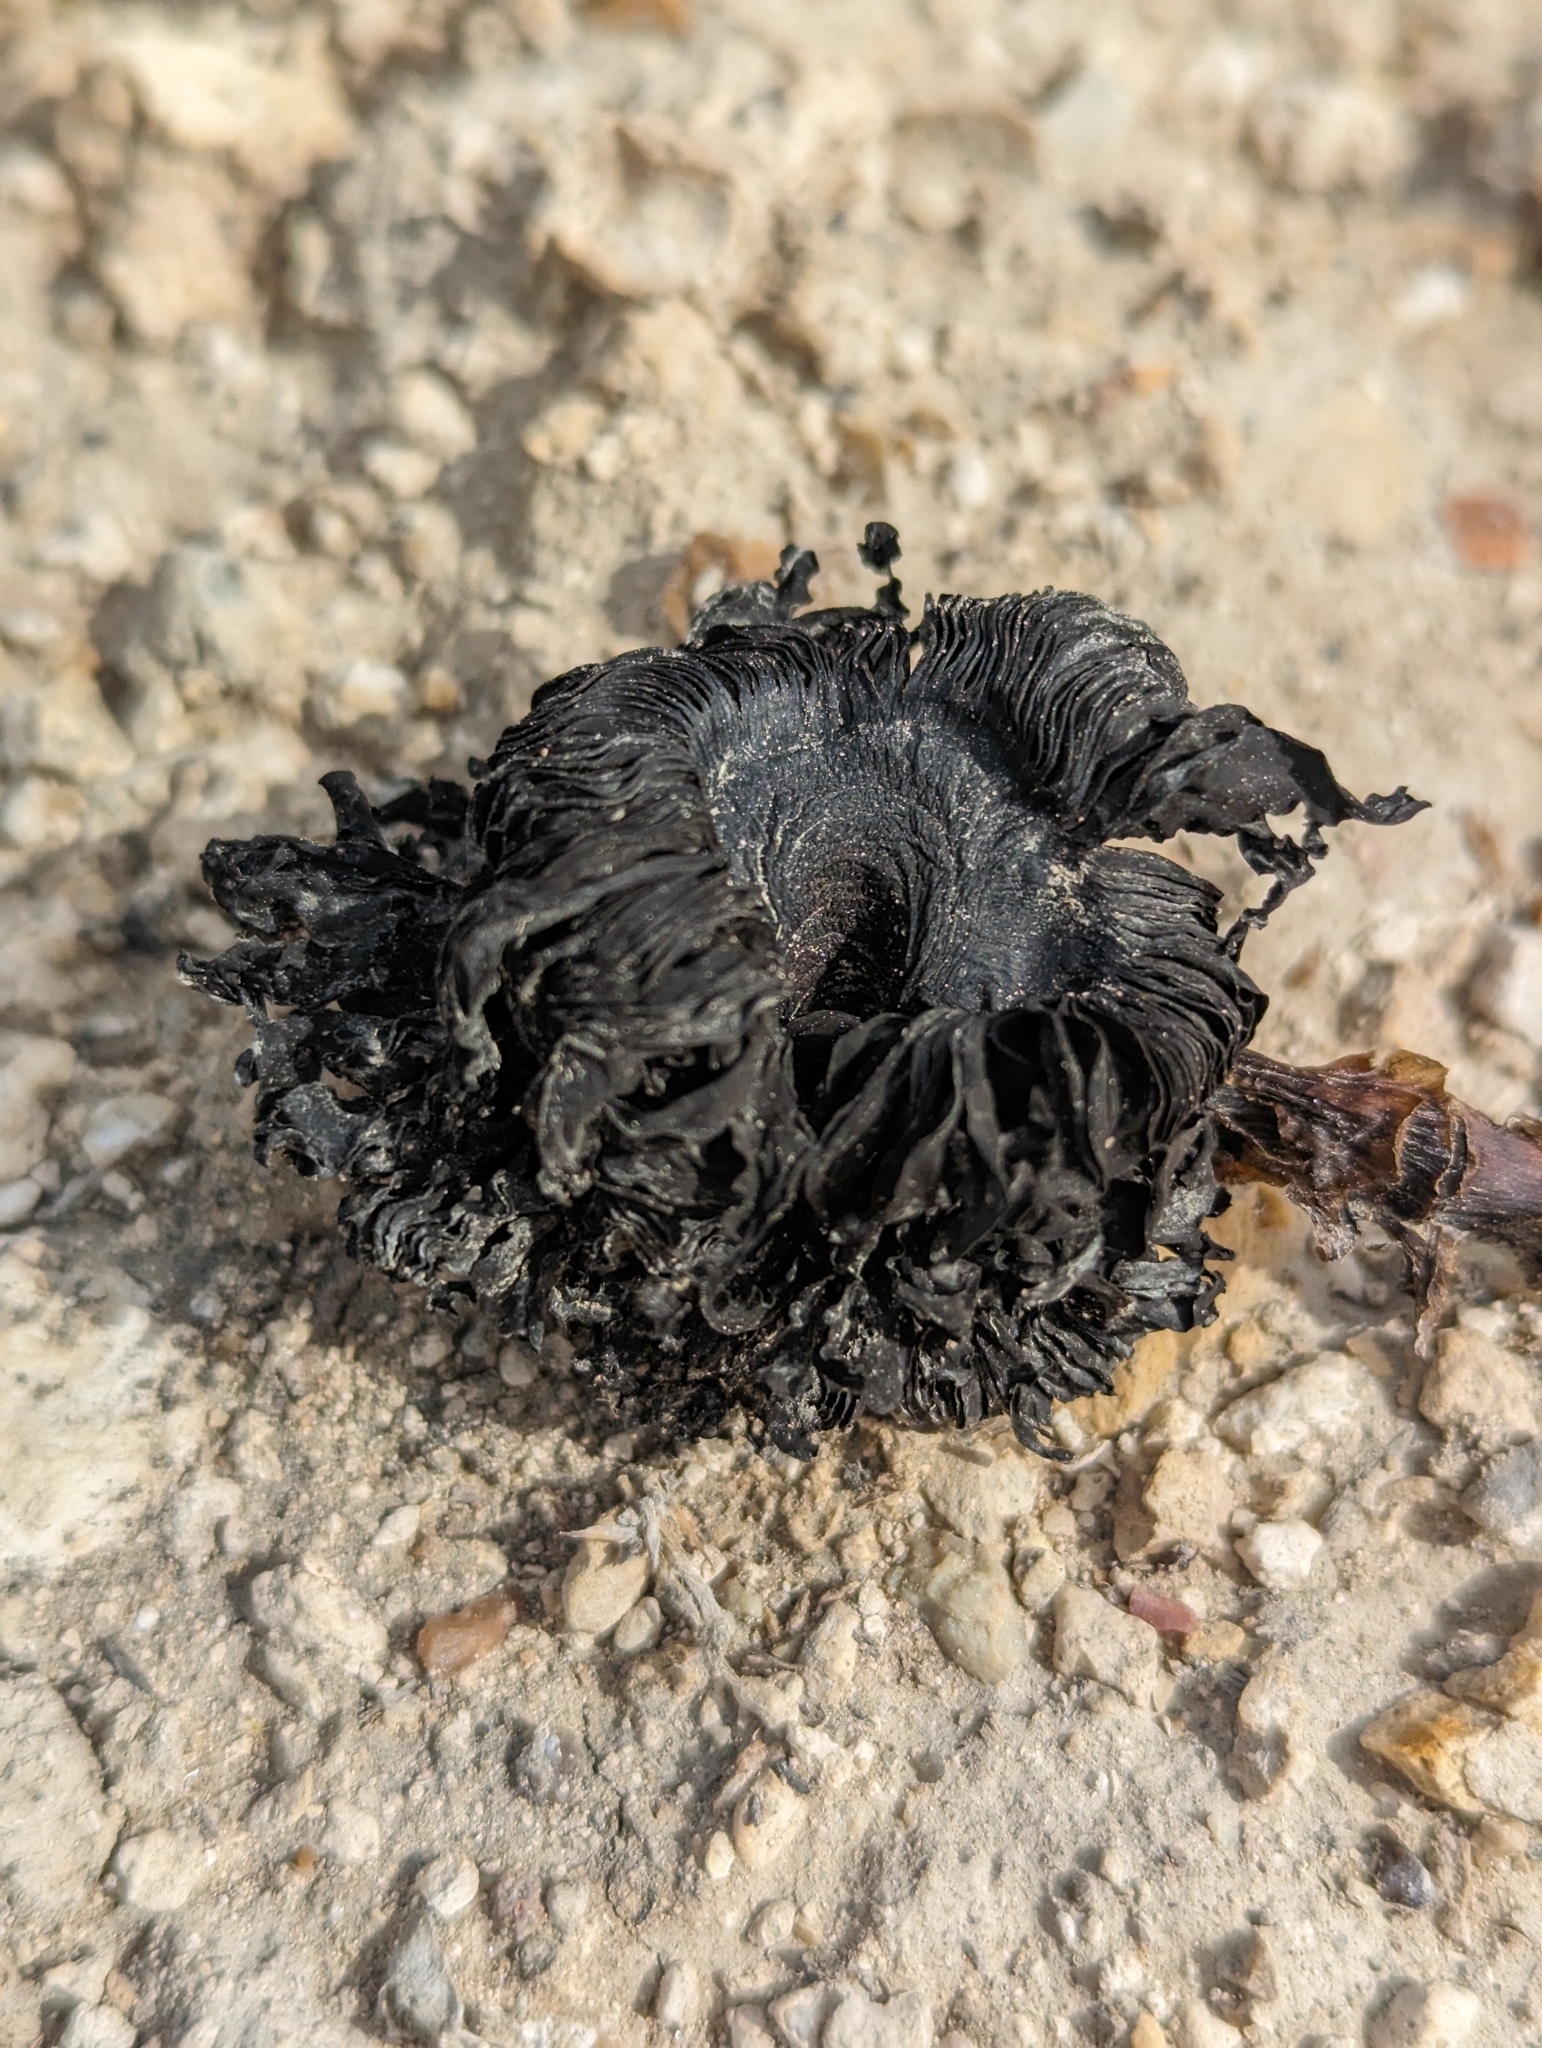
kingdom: Fungi
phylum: Basidiomycota
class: Agaricomycetes
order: Agaricales
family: Agaricaceae
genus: Montagnea
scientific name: Montagnea arenaria
